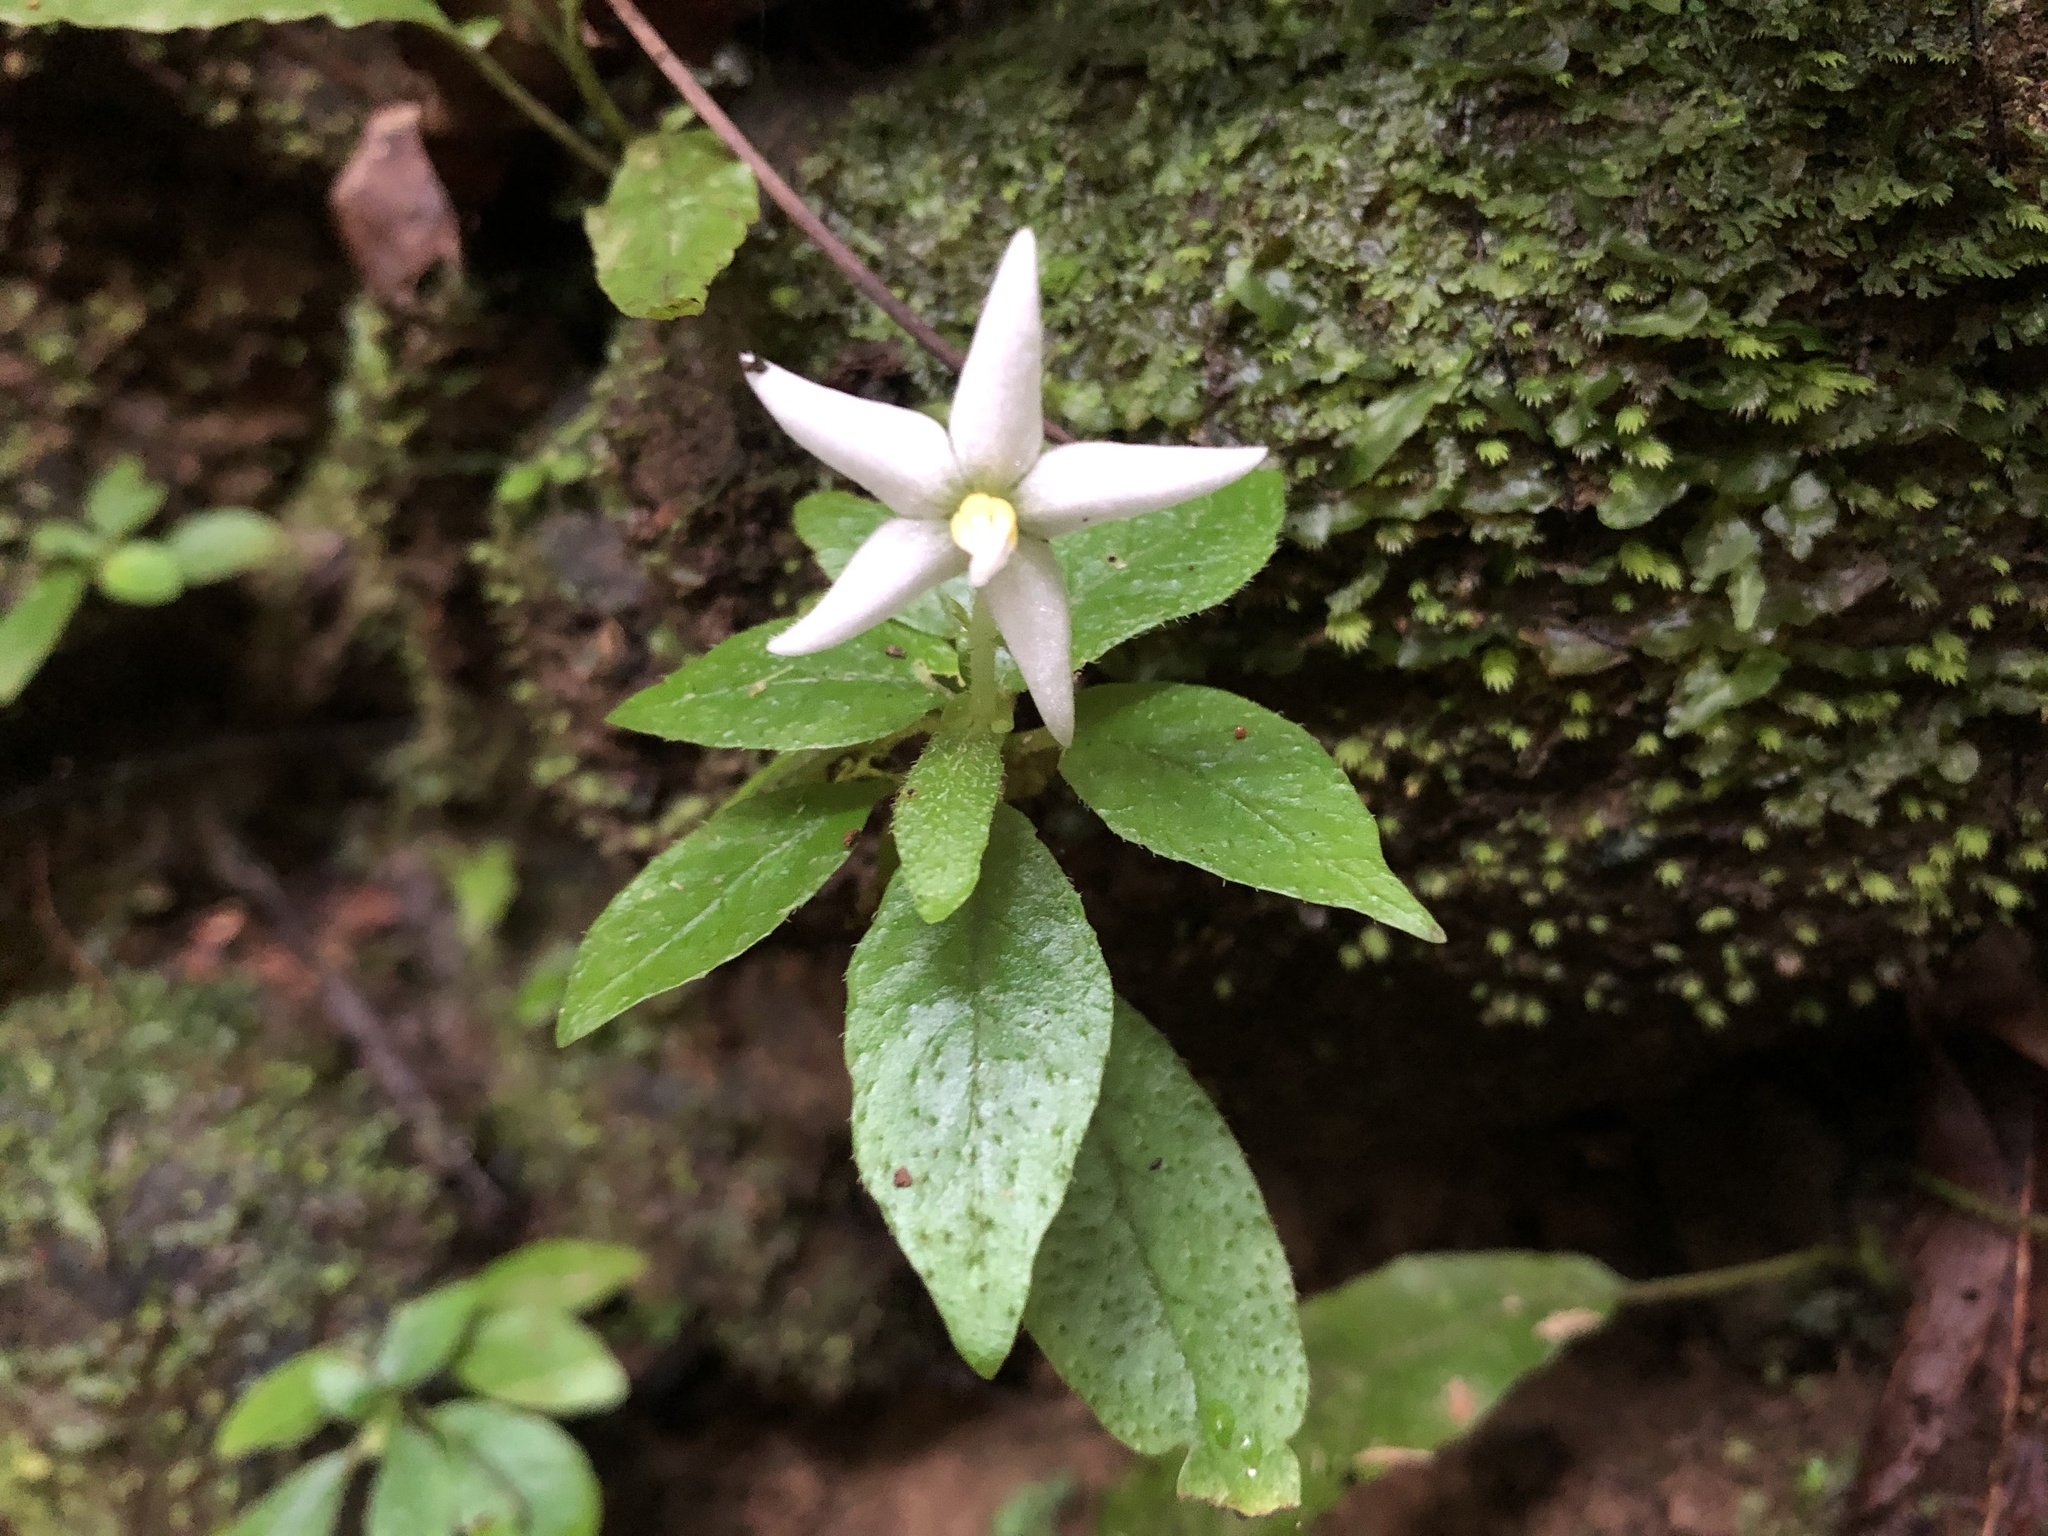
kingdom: Plantae
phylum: Tracheophyta
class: Magnoliopsida
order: Gentianales
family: Rubiaceae
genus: Argostemma
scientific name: Argostemma solaniflorum
